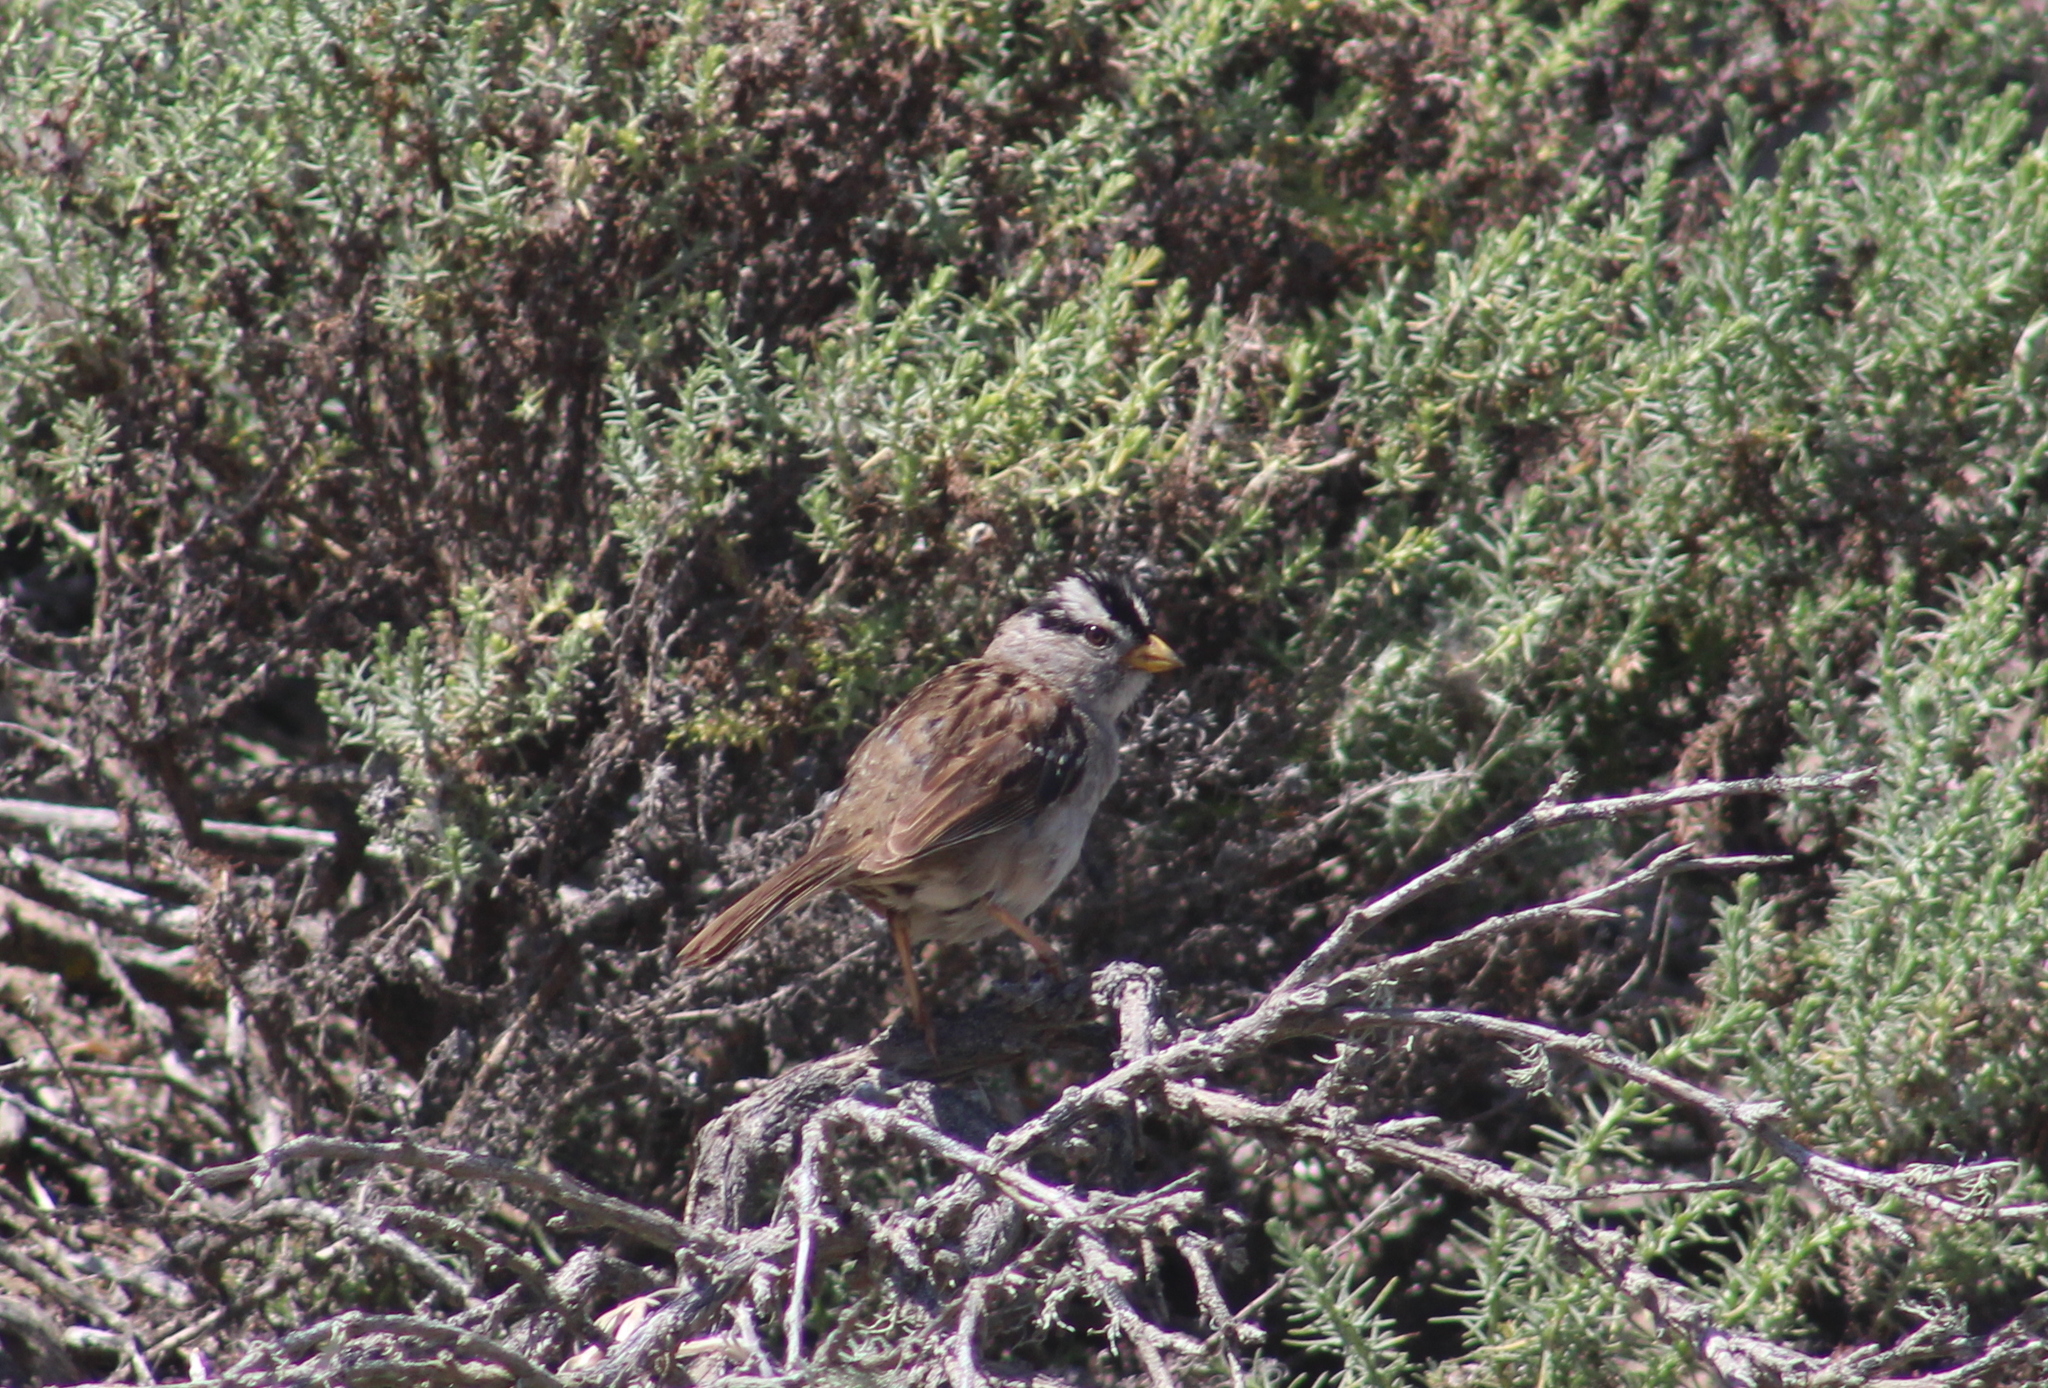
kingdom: Animalia
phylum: Chordata
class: Aves
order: Passeriformes
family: Passerellidae
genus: Zonotrichia
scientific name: Zonotrichia leucophrys
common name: White-crowned sparrow
